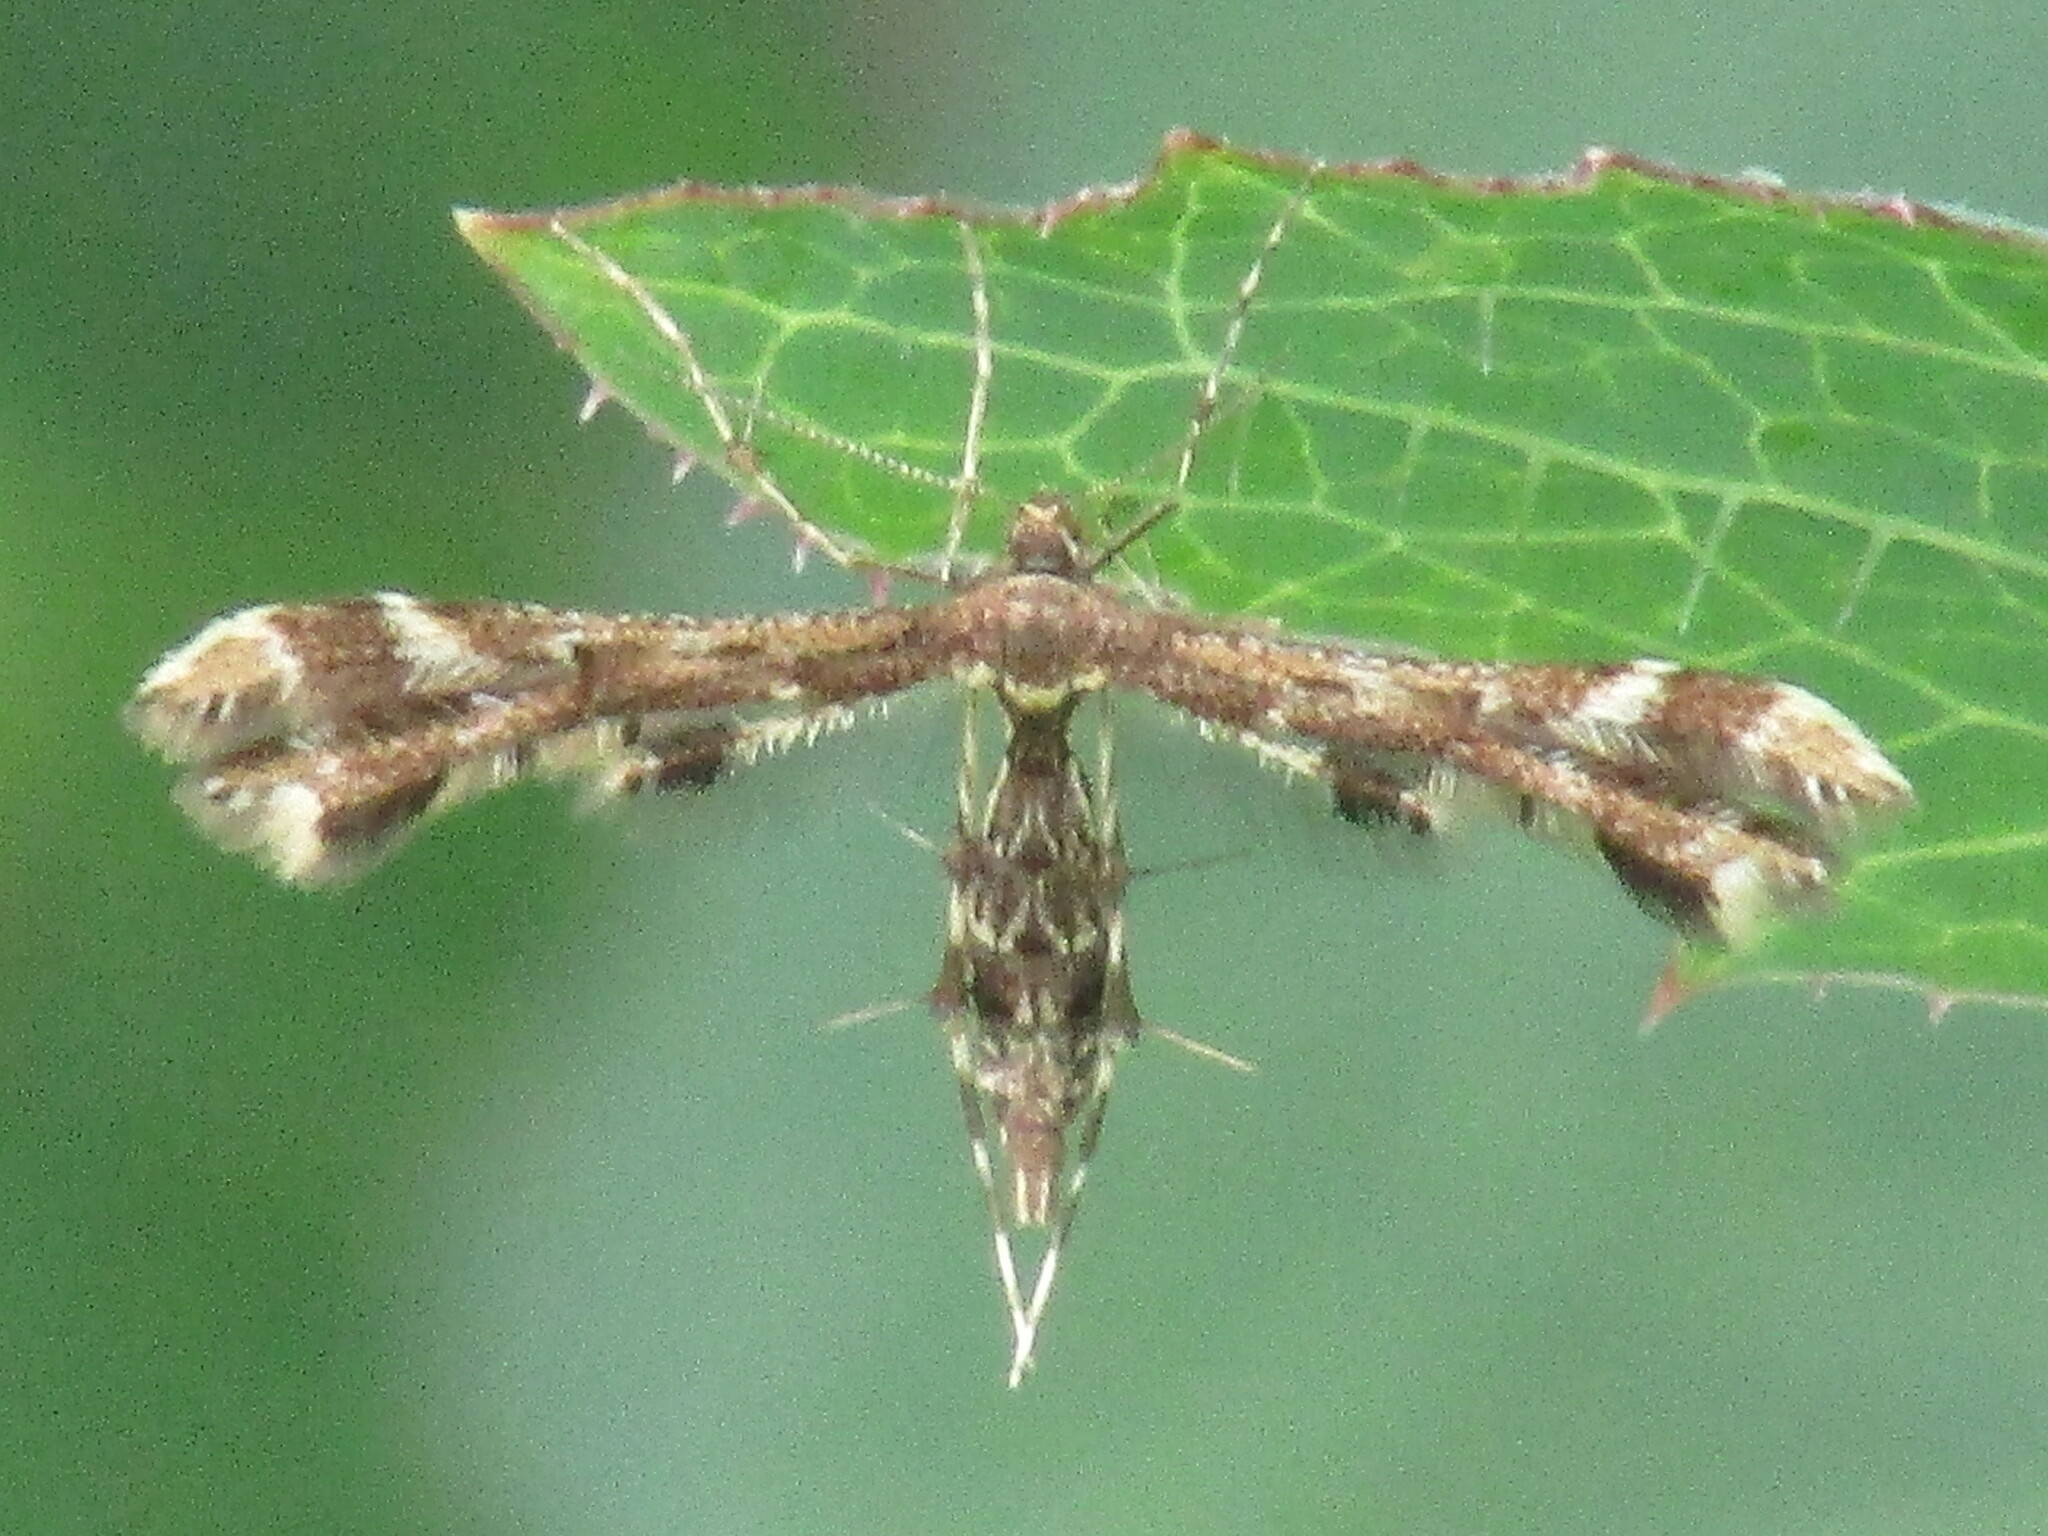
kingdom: Animalia
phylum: Arthropoda
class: Insecta
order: Lepidoptera
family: Pterophoridae
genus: Capperia
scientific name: Capperia
